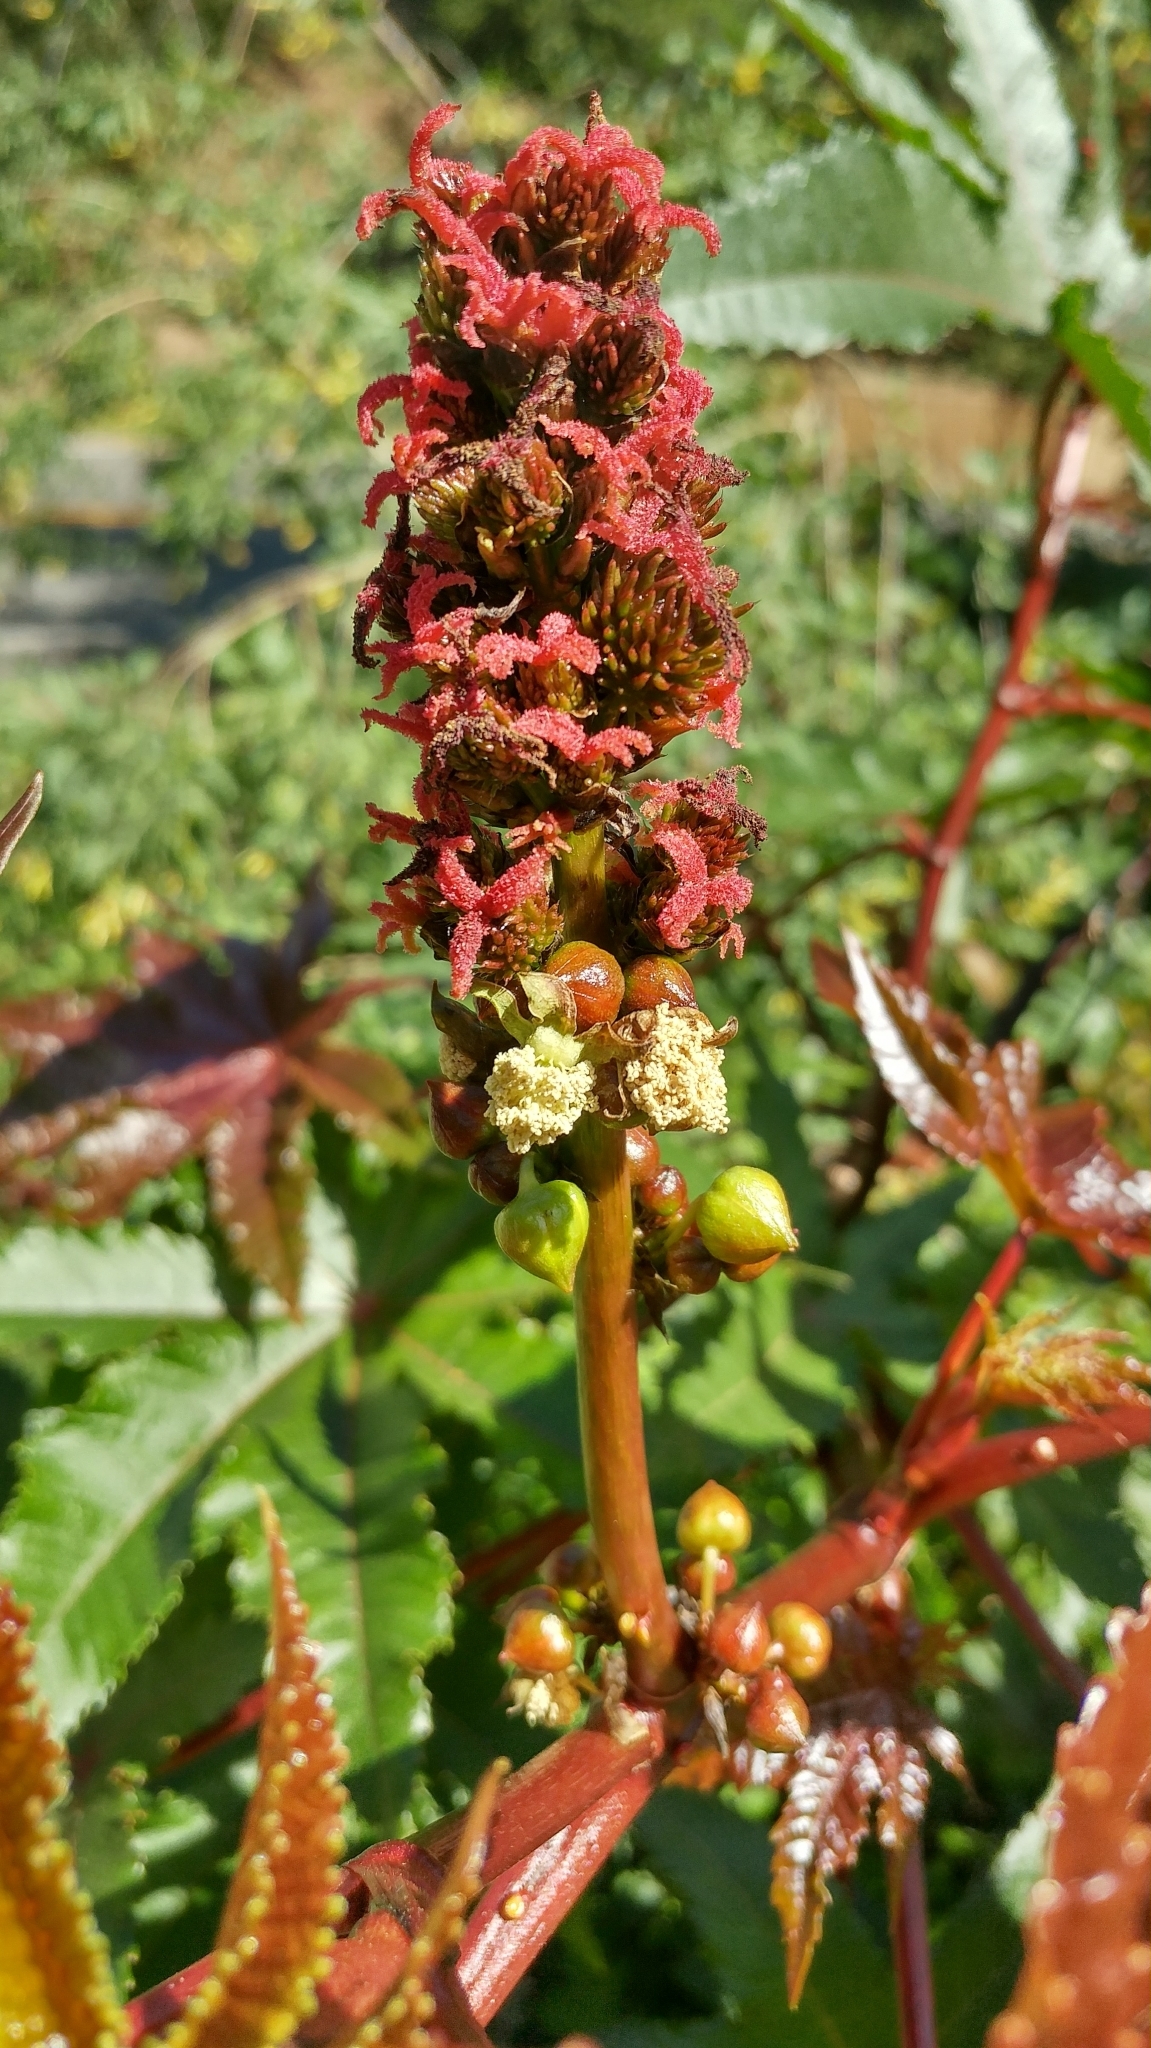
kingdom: Plantae
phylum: Tracheophyta
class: Magnoliopsida
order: Malpighiales
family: Euphorbiaceae
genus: Ricinus
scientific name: Ricinus communis
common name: Castor-oil-plant
